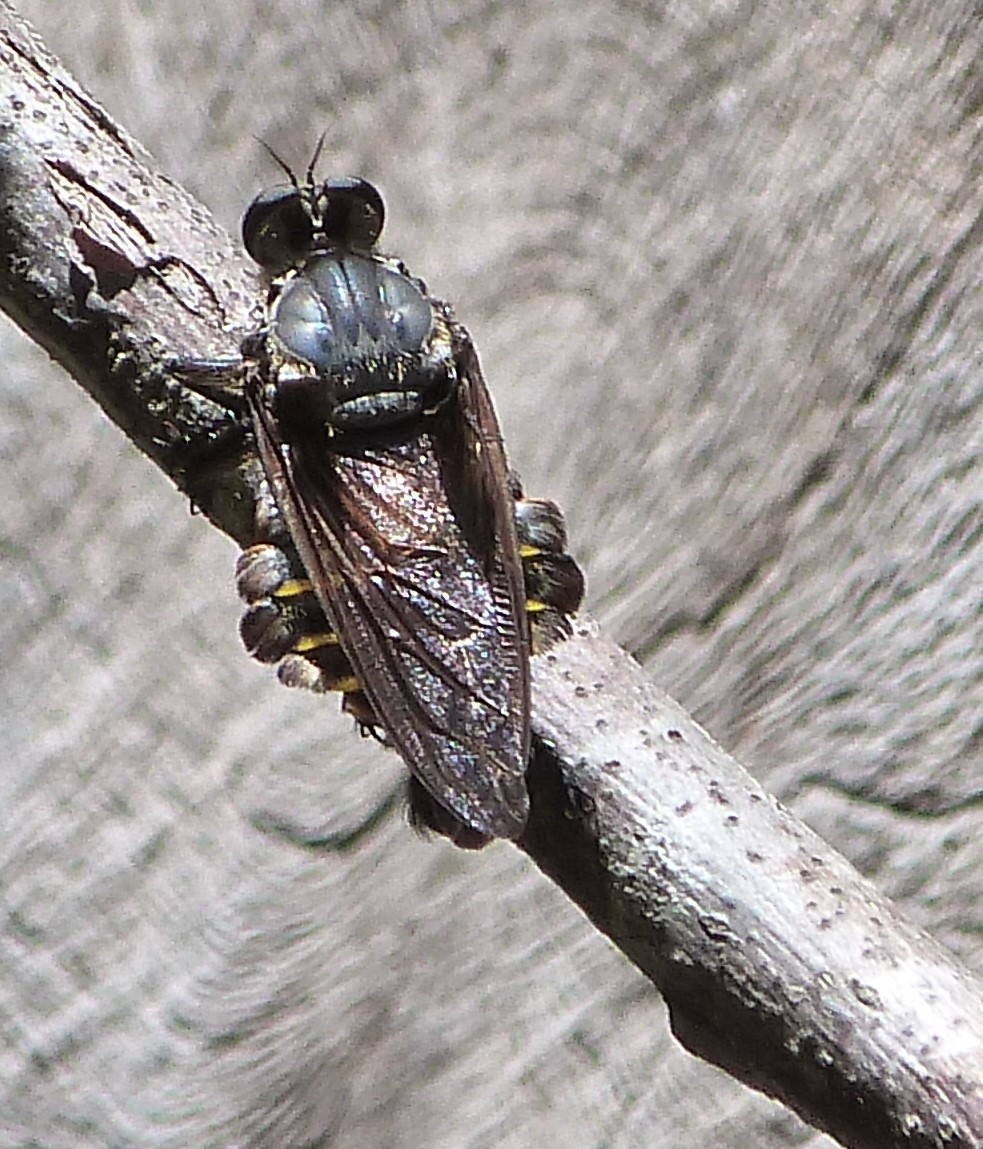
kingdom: Animalia
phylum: Arthropoda
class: Insecta
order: Diptera
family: Asilidae
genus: Blepharotes
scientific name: Blepharotes splendidissimus
